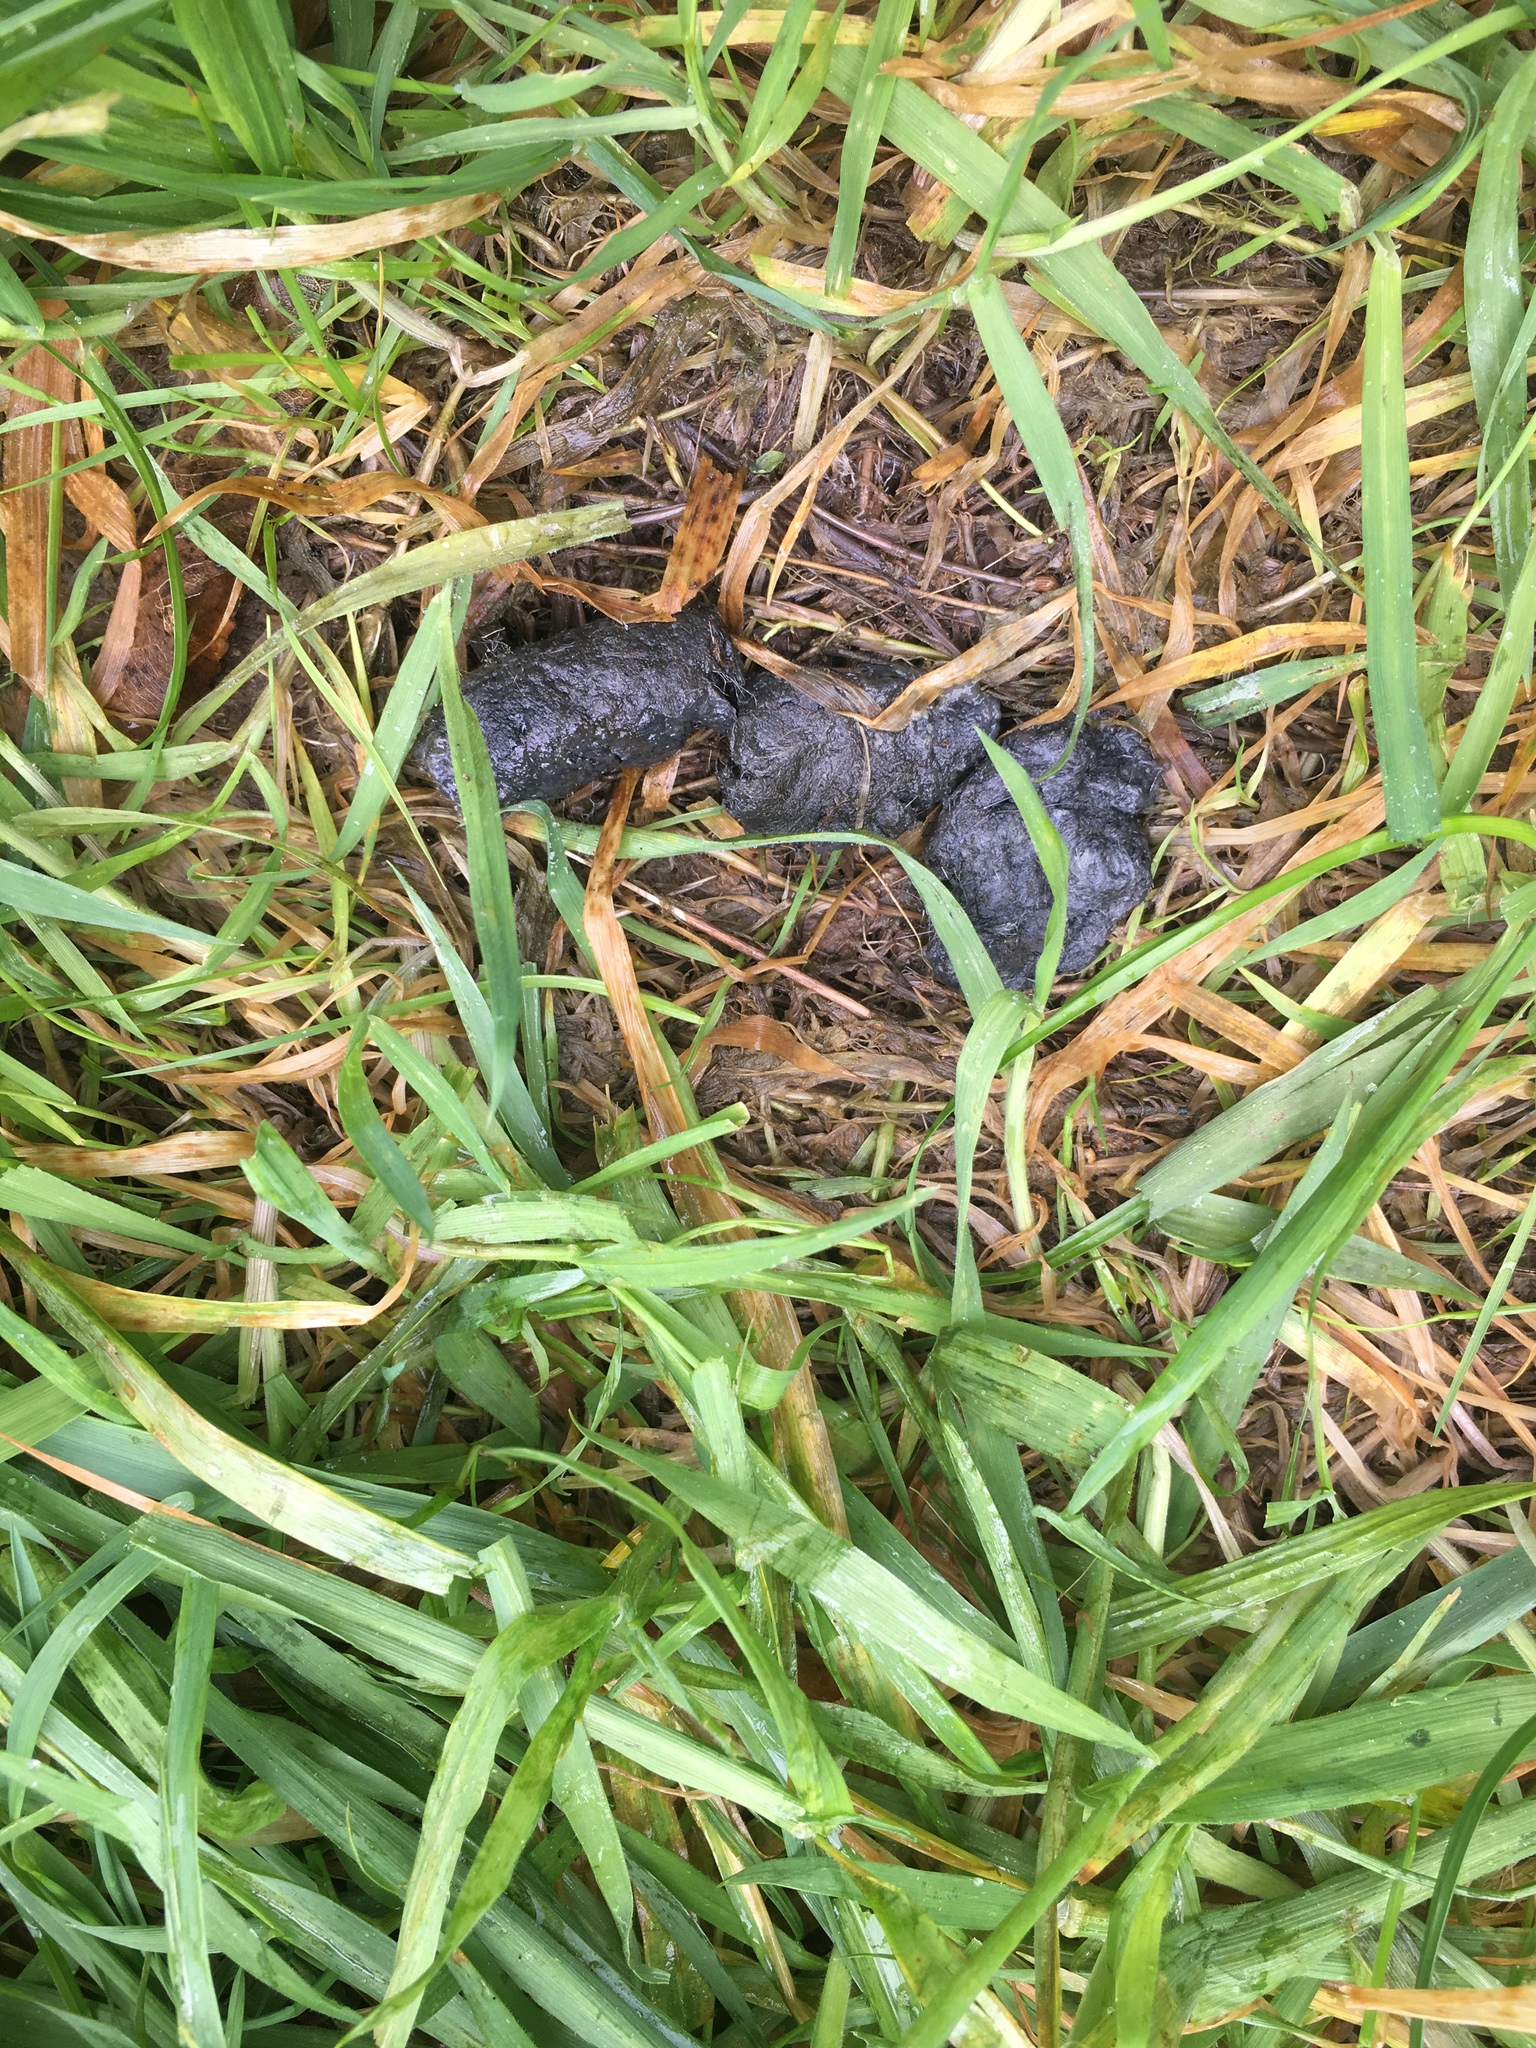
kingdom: Animalia
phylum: Chordata
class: Mammalia
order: Carnivora
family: Felidae
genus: Felis
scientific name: Felis catus
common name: Domestic cat
